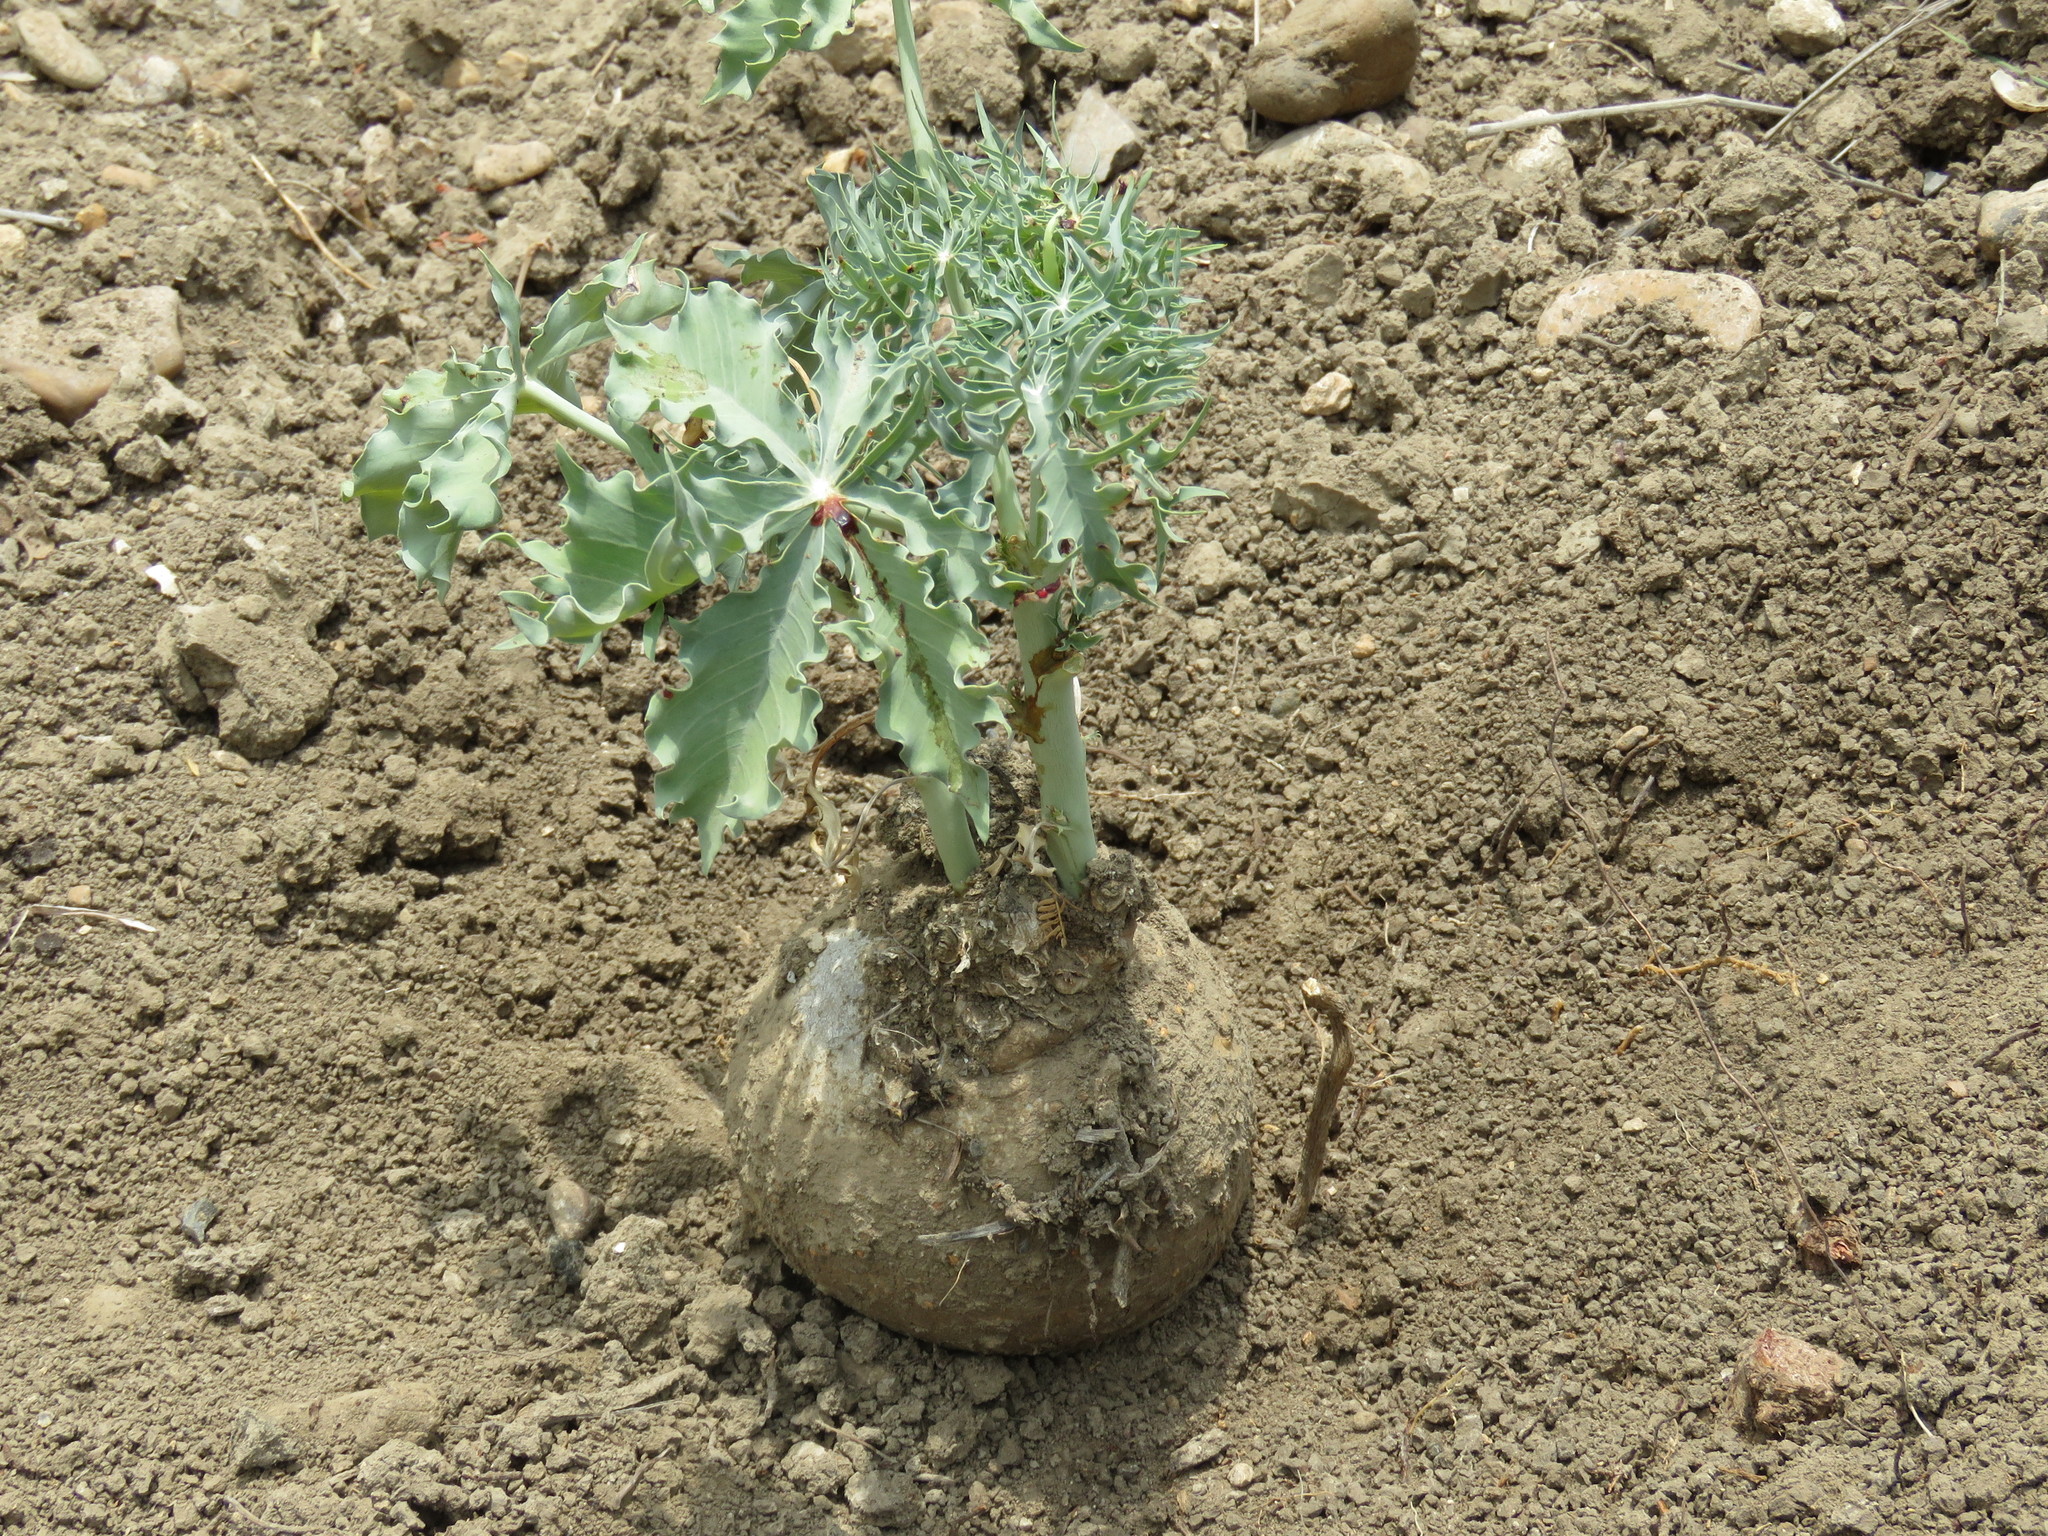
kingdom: Plantae
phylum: Tracheophyta
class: Magnoliopsida
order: Malpighiales
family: Euphorbiaceae
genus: Jatropha
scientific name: Jatropha cathartica
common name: Berlander's nettlespurge
